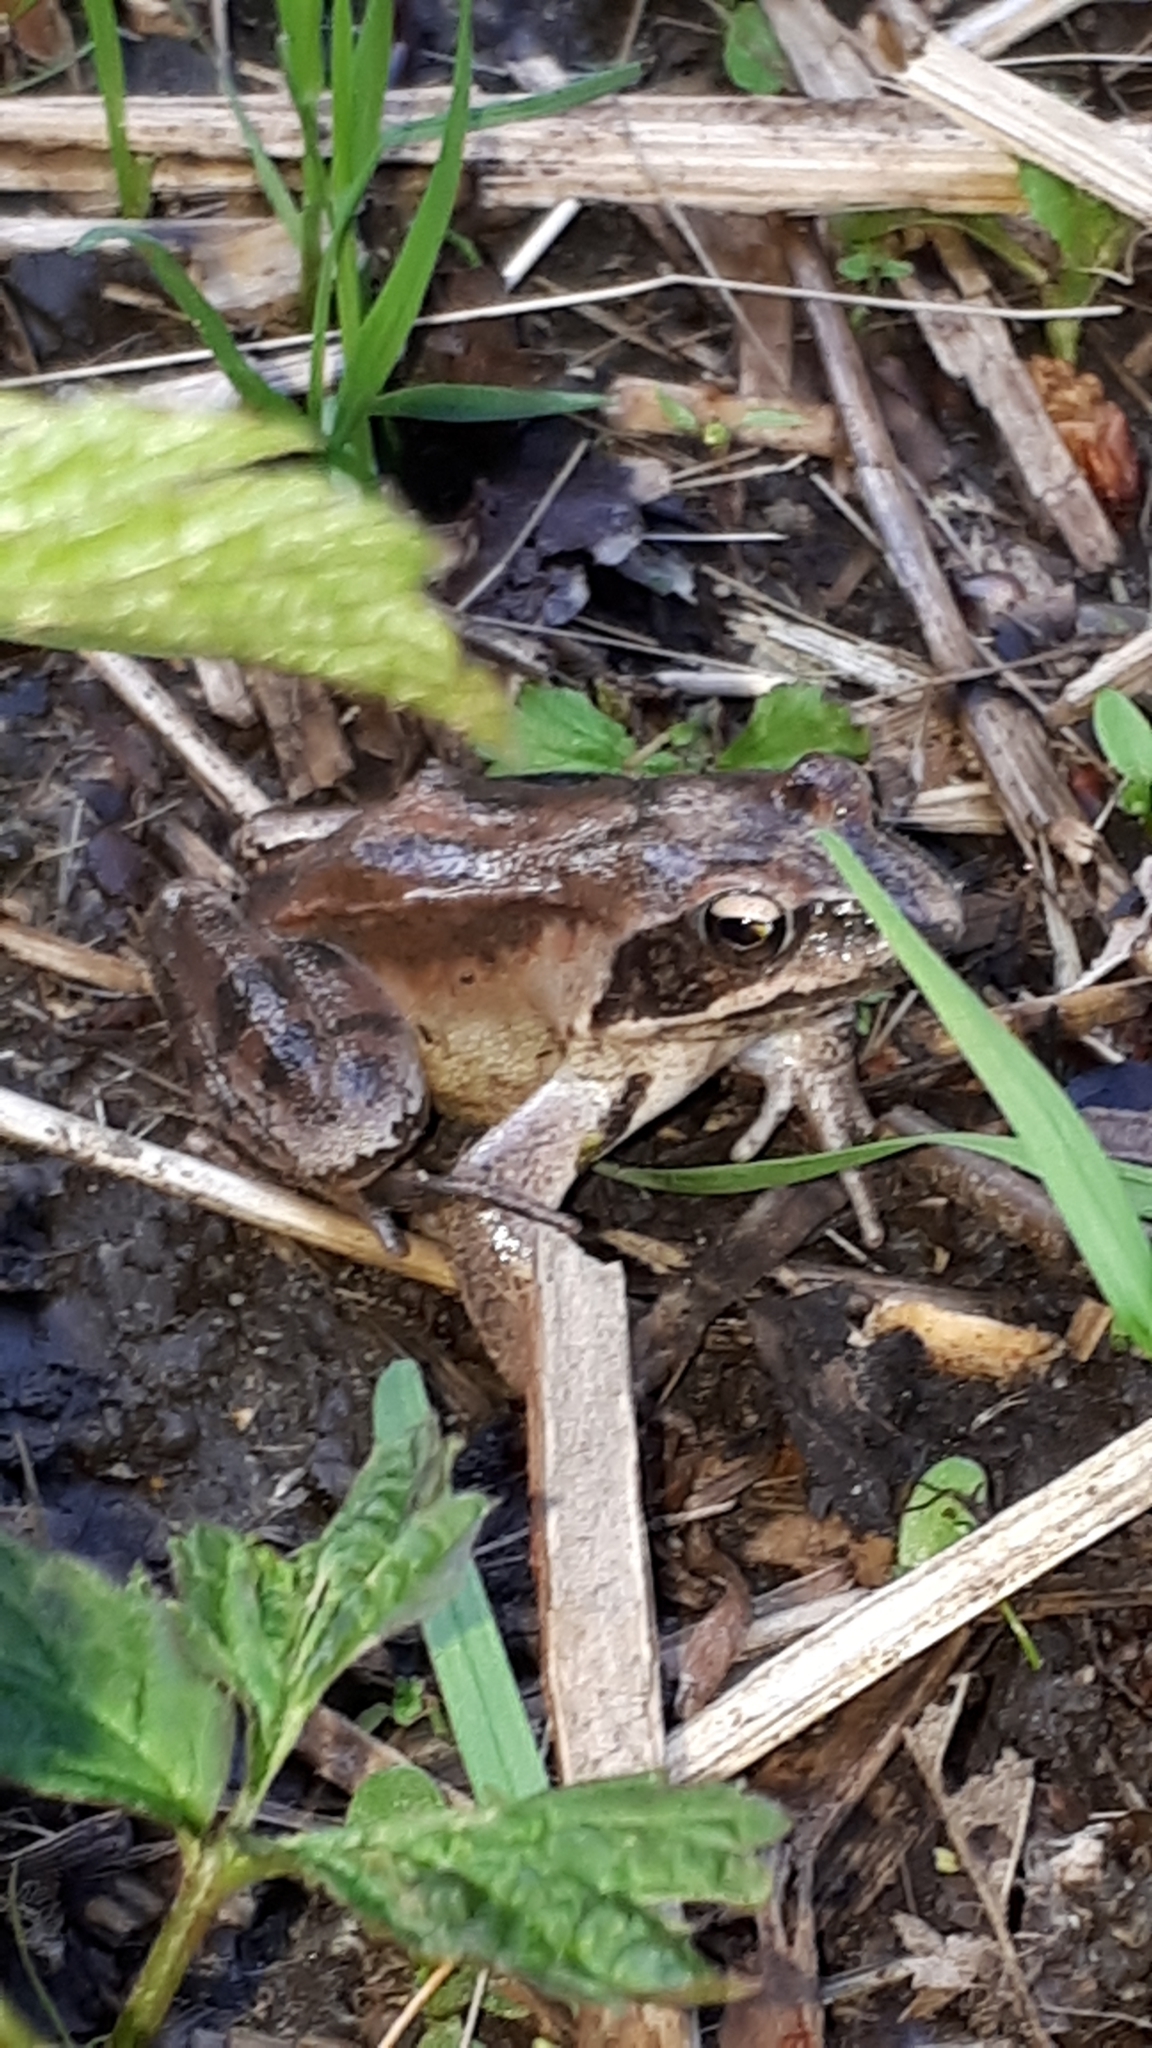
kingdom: Animalia
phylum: Chordata
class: Amphibia
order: Anura
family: Ranidae
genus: Rana
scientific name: Rana dalmatina
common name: Agile frog
